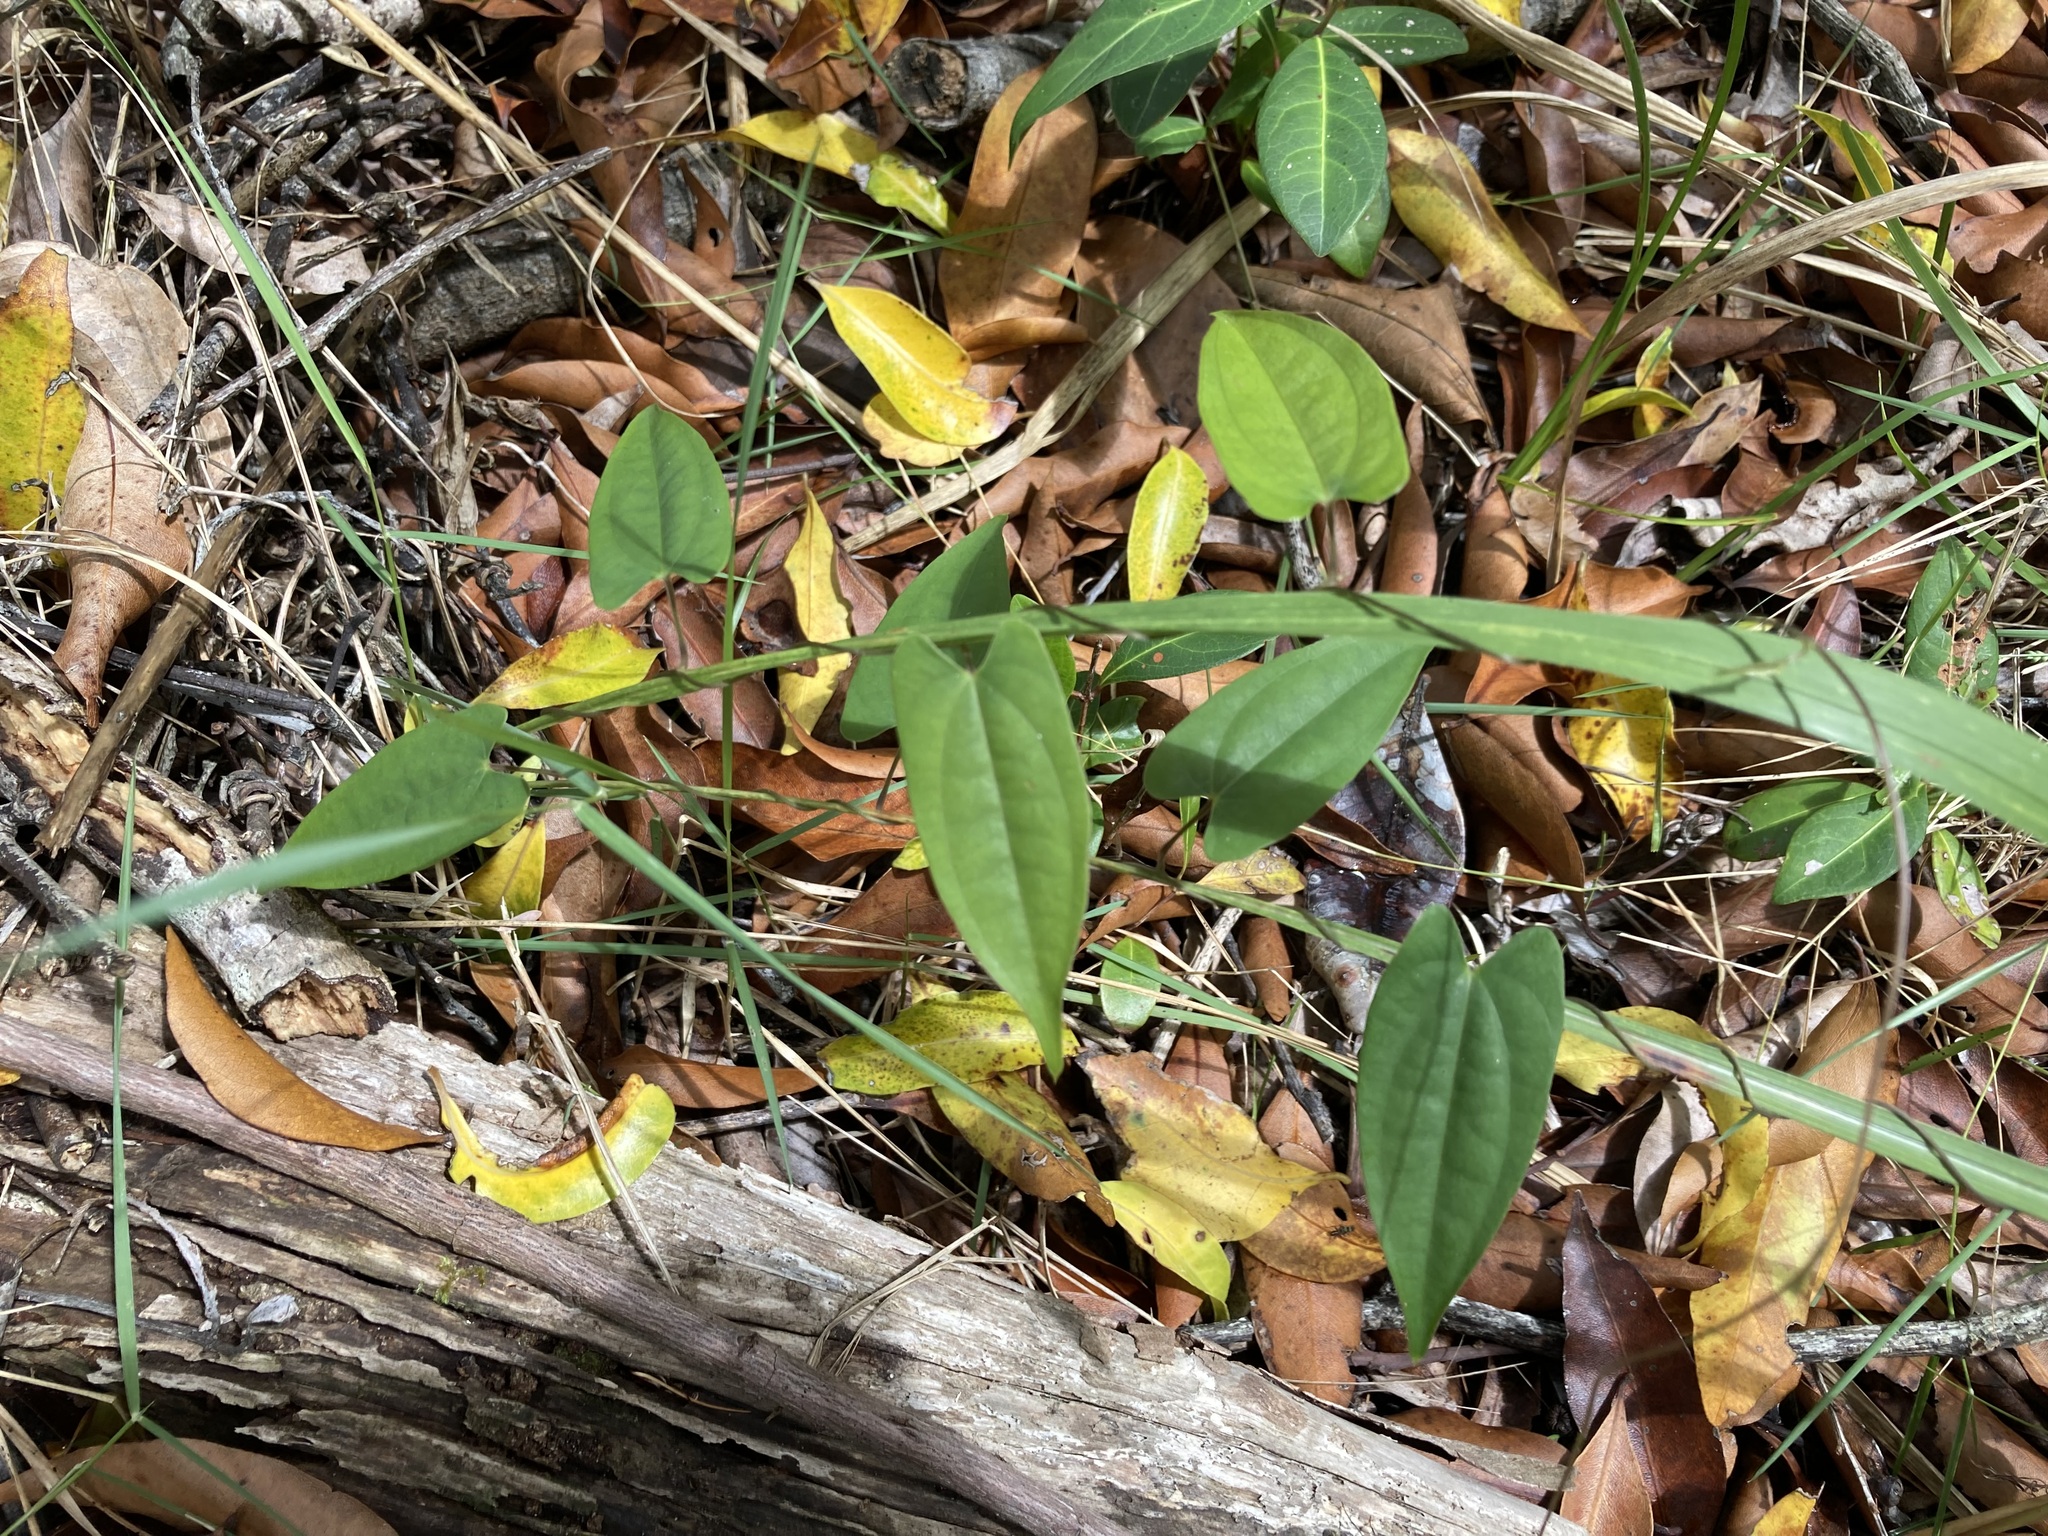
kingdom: Plantae
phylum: Tracheophyta
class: Liliopsida
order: Dioscoreales
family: Dioscoreaceae
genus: Dioscorea
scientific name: Dioscorea transversa
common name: Long yam
